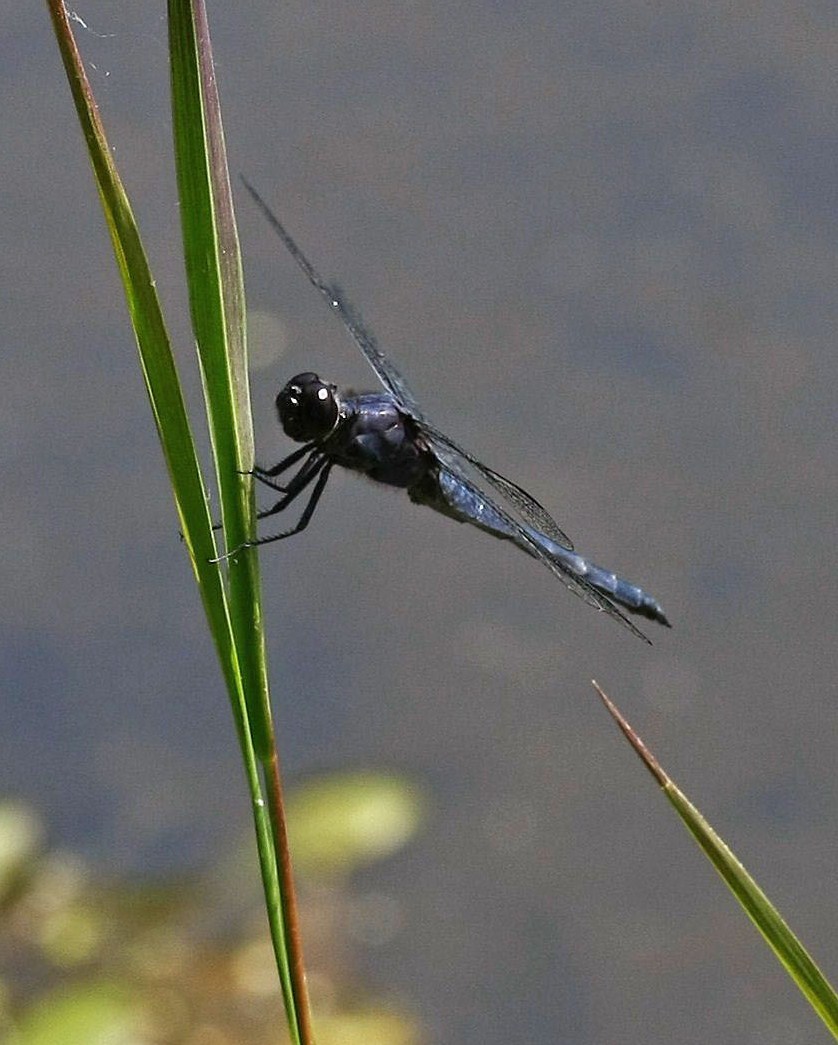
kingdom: Animalia
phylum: Arthropoda
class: Insecta
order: Odonata
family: Libellulidae
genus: Libellula
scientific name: Libellula incesta
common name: Slaty skimmer
